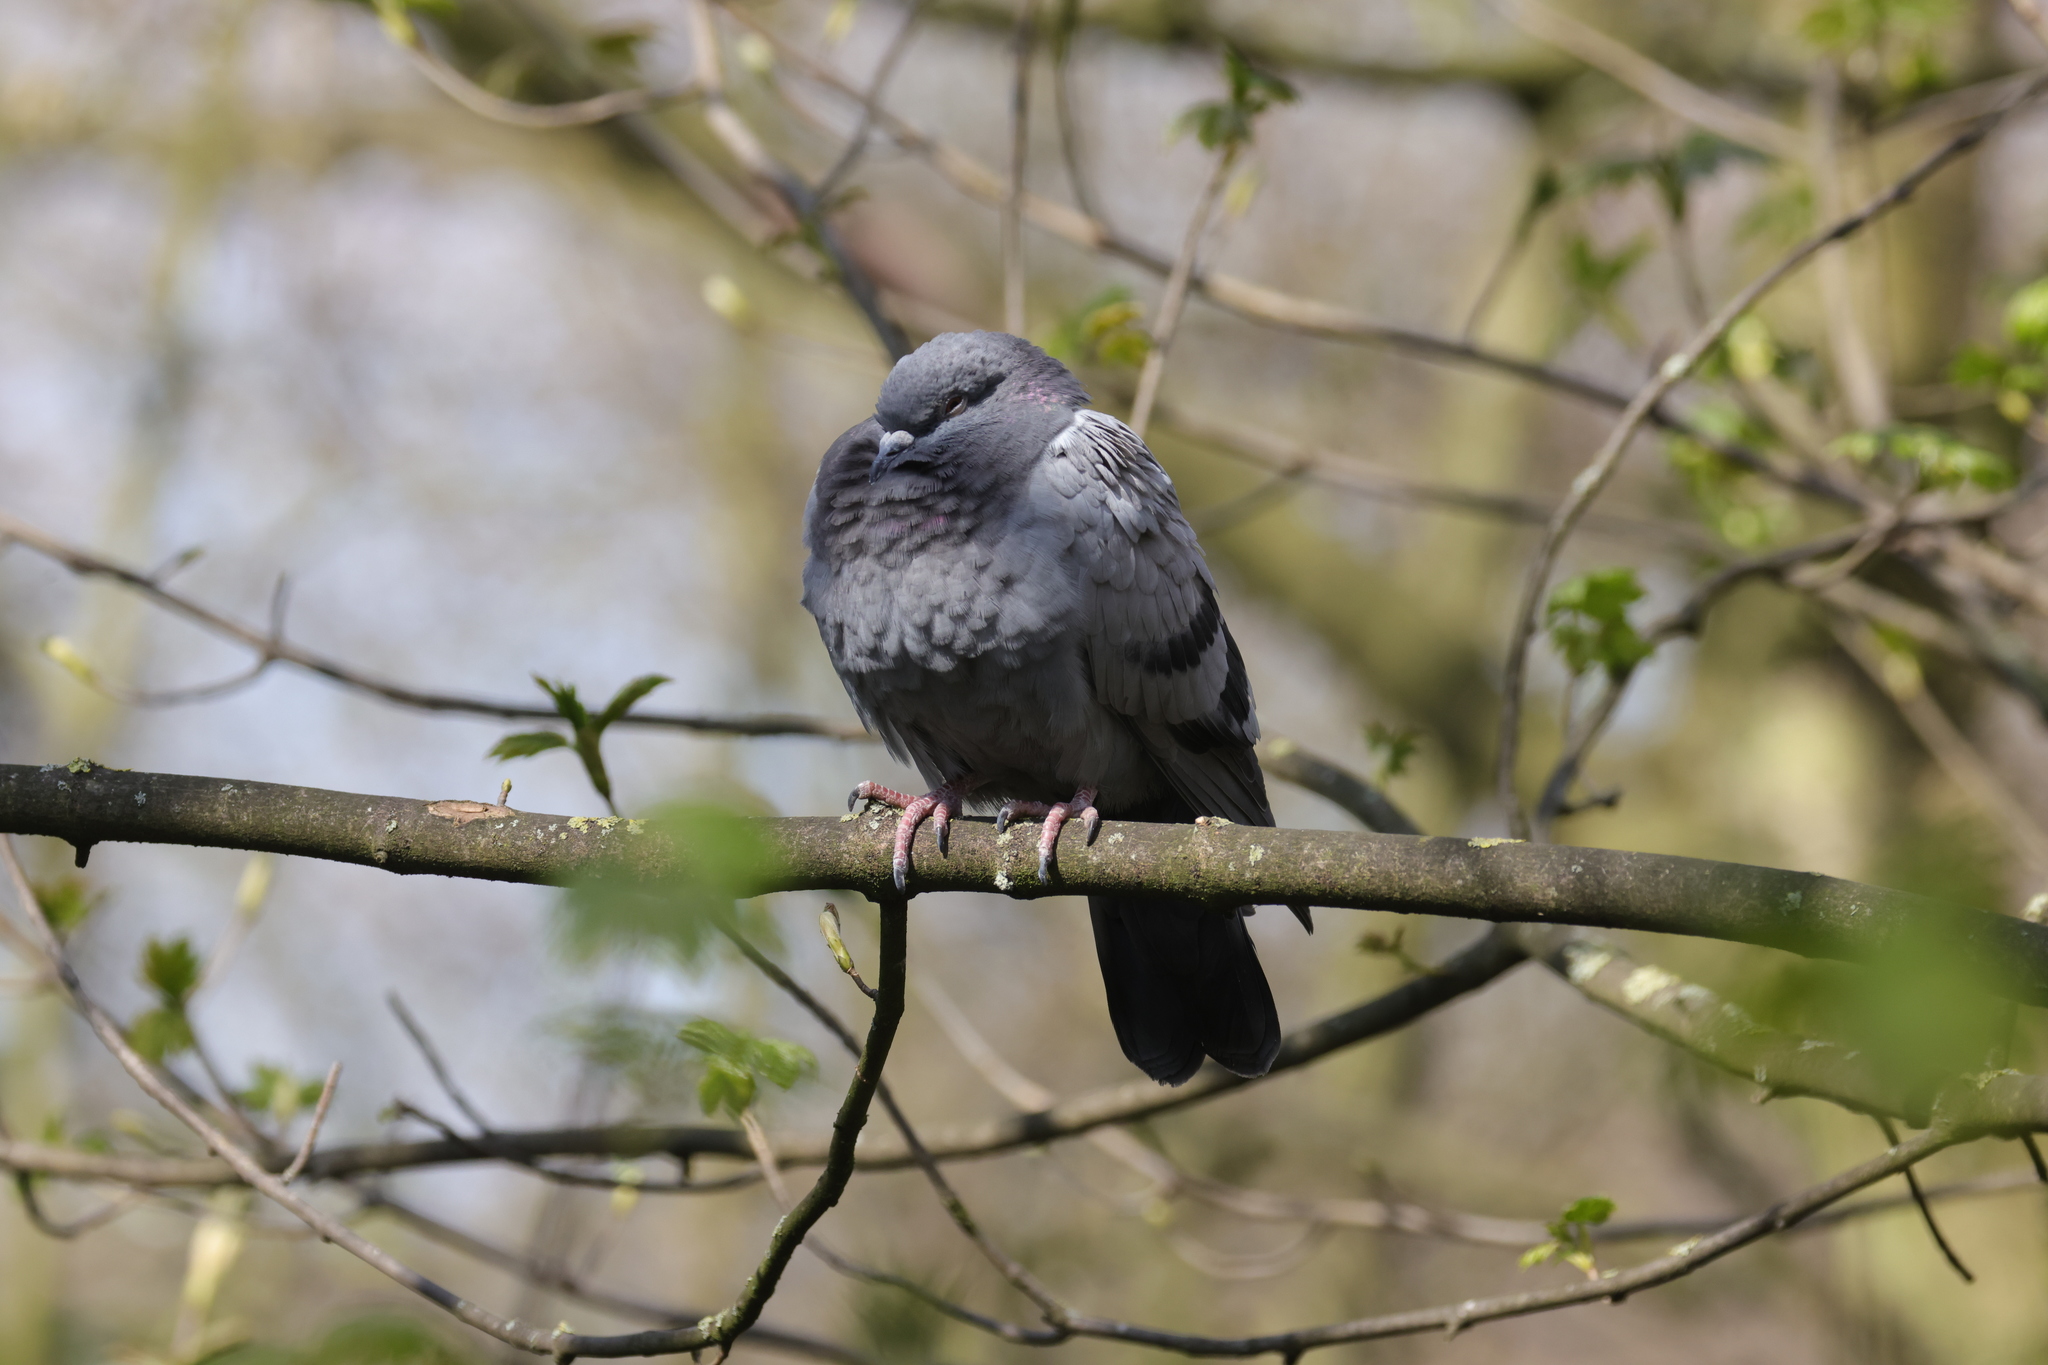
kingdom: Animalia
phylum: Chordata
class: Aves
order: Columbiformes
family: Columbidae
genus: Columba
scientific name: Columba livia
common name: Rock pigeon
